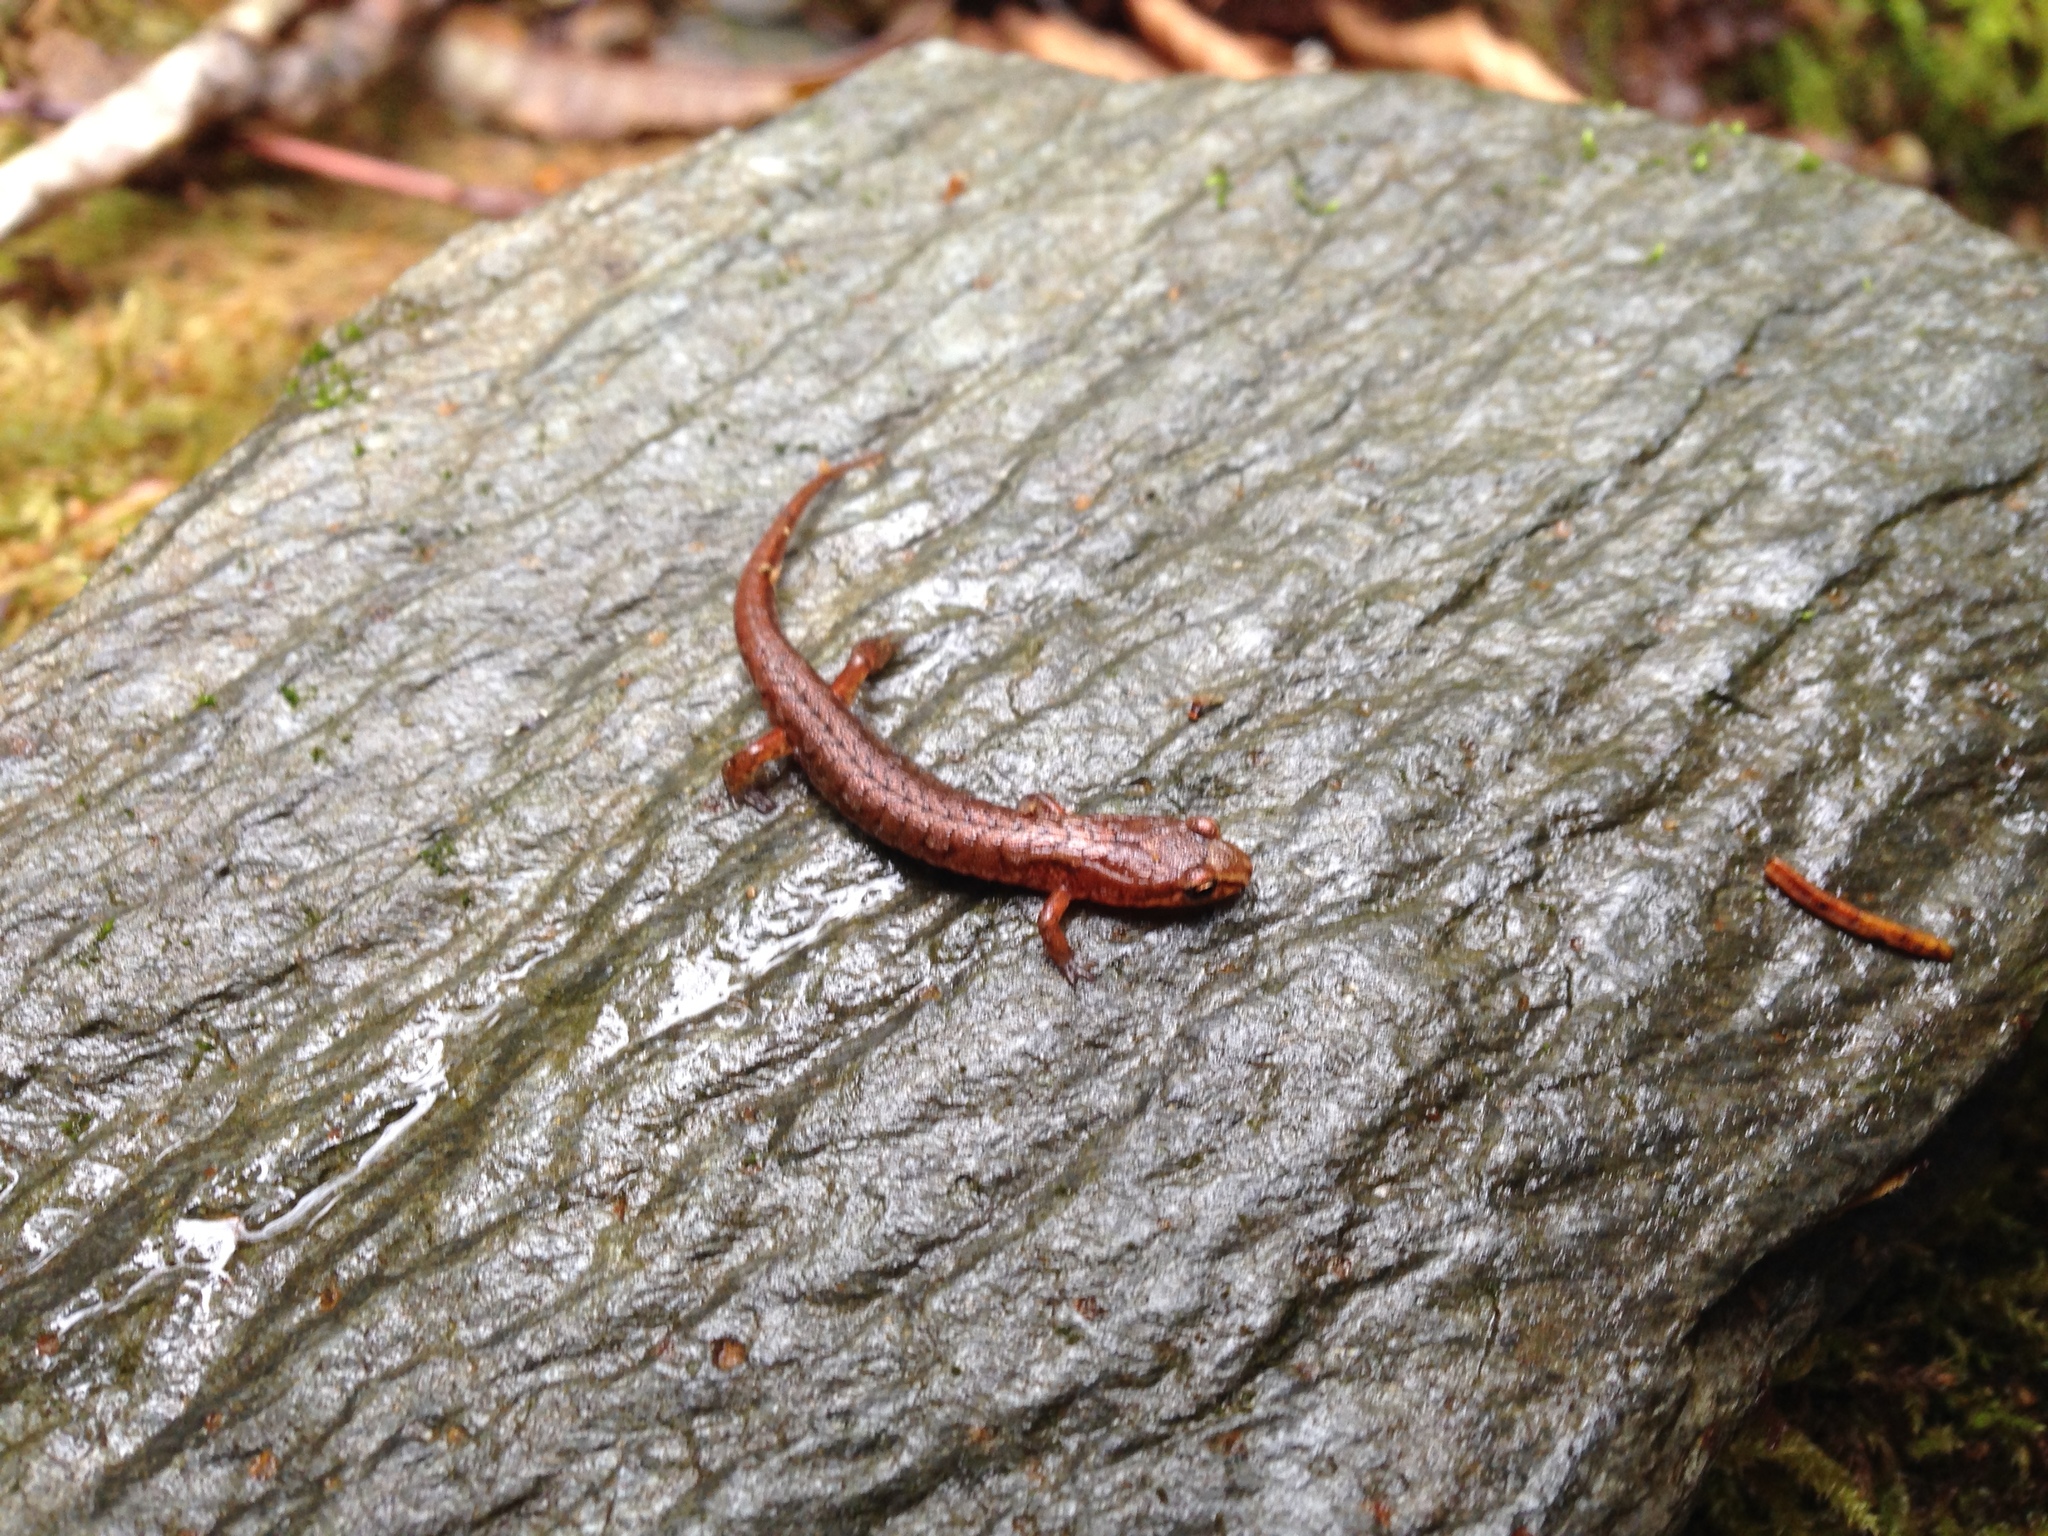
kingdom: Animalia
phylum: Chordata
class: Amphibia
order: Caudata
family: Plethodontidae
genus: Desmognathus
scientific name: Desmognathus wrighti
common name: Pygmy salamander
